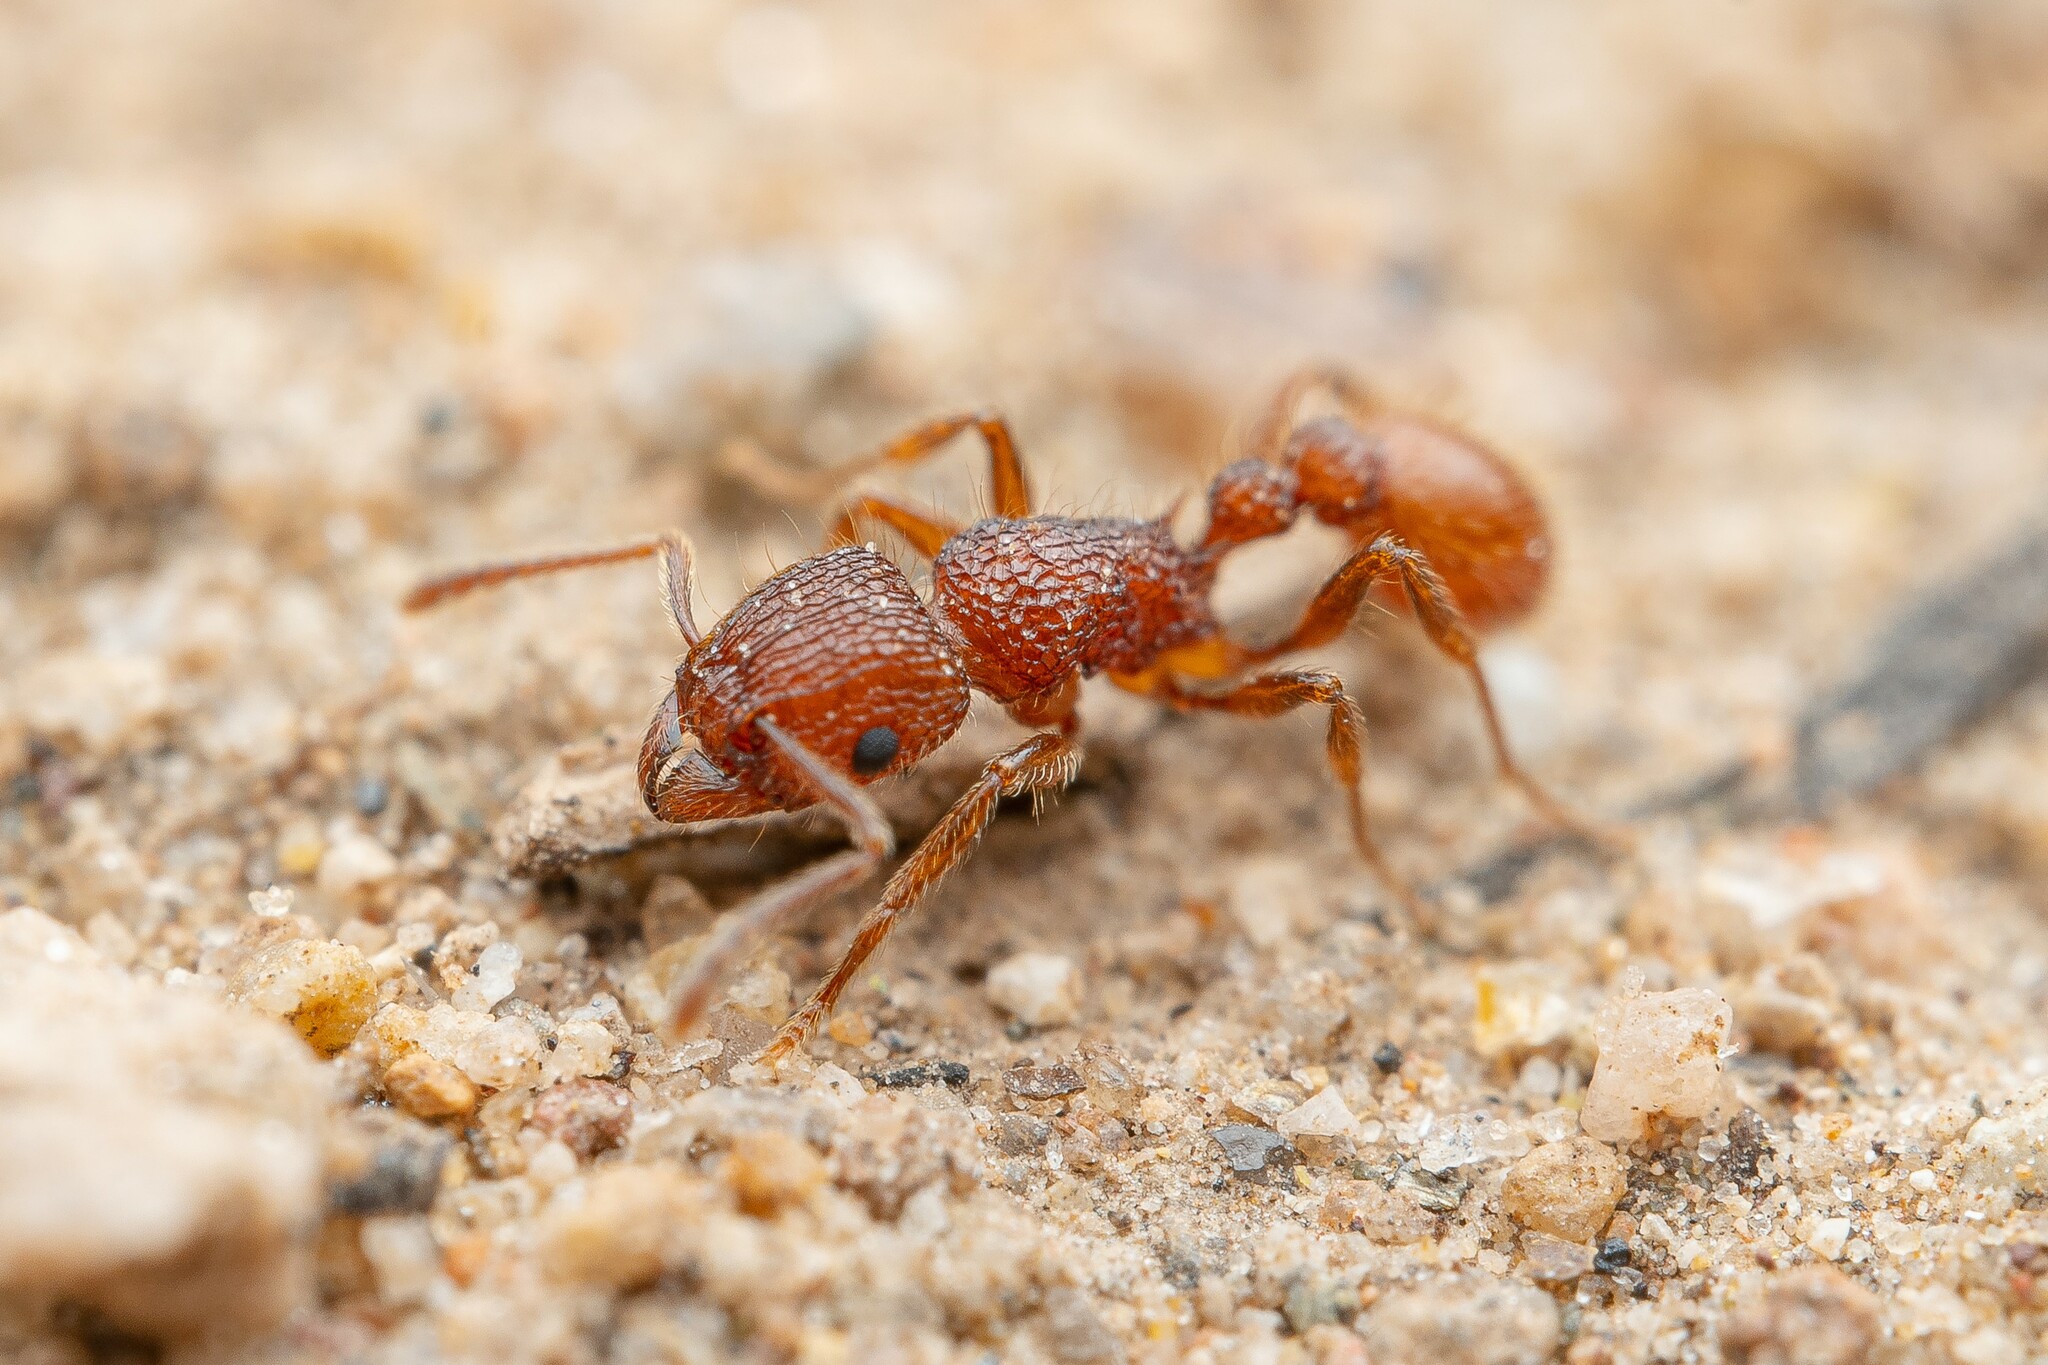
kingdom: Animalia
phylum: Arthropoda
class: Insecta
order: Hymenoptera
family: Formicidae
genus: Tetramorium
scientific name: Tetramorium spinosum
